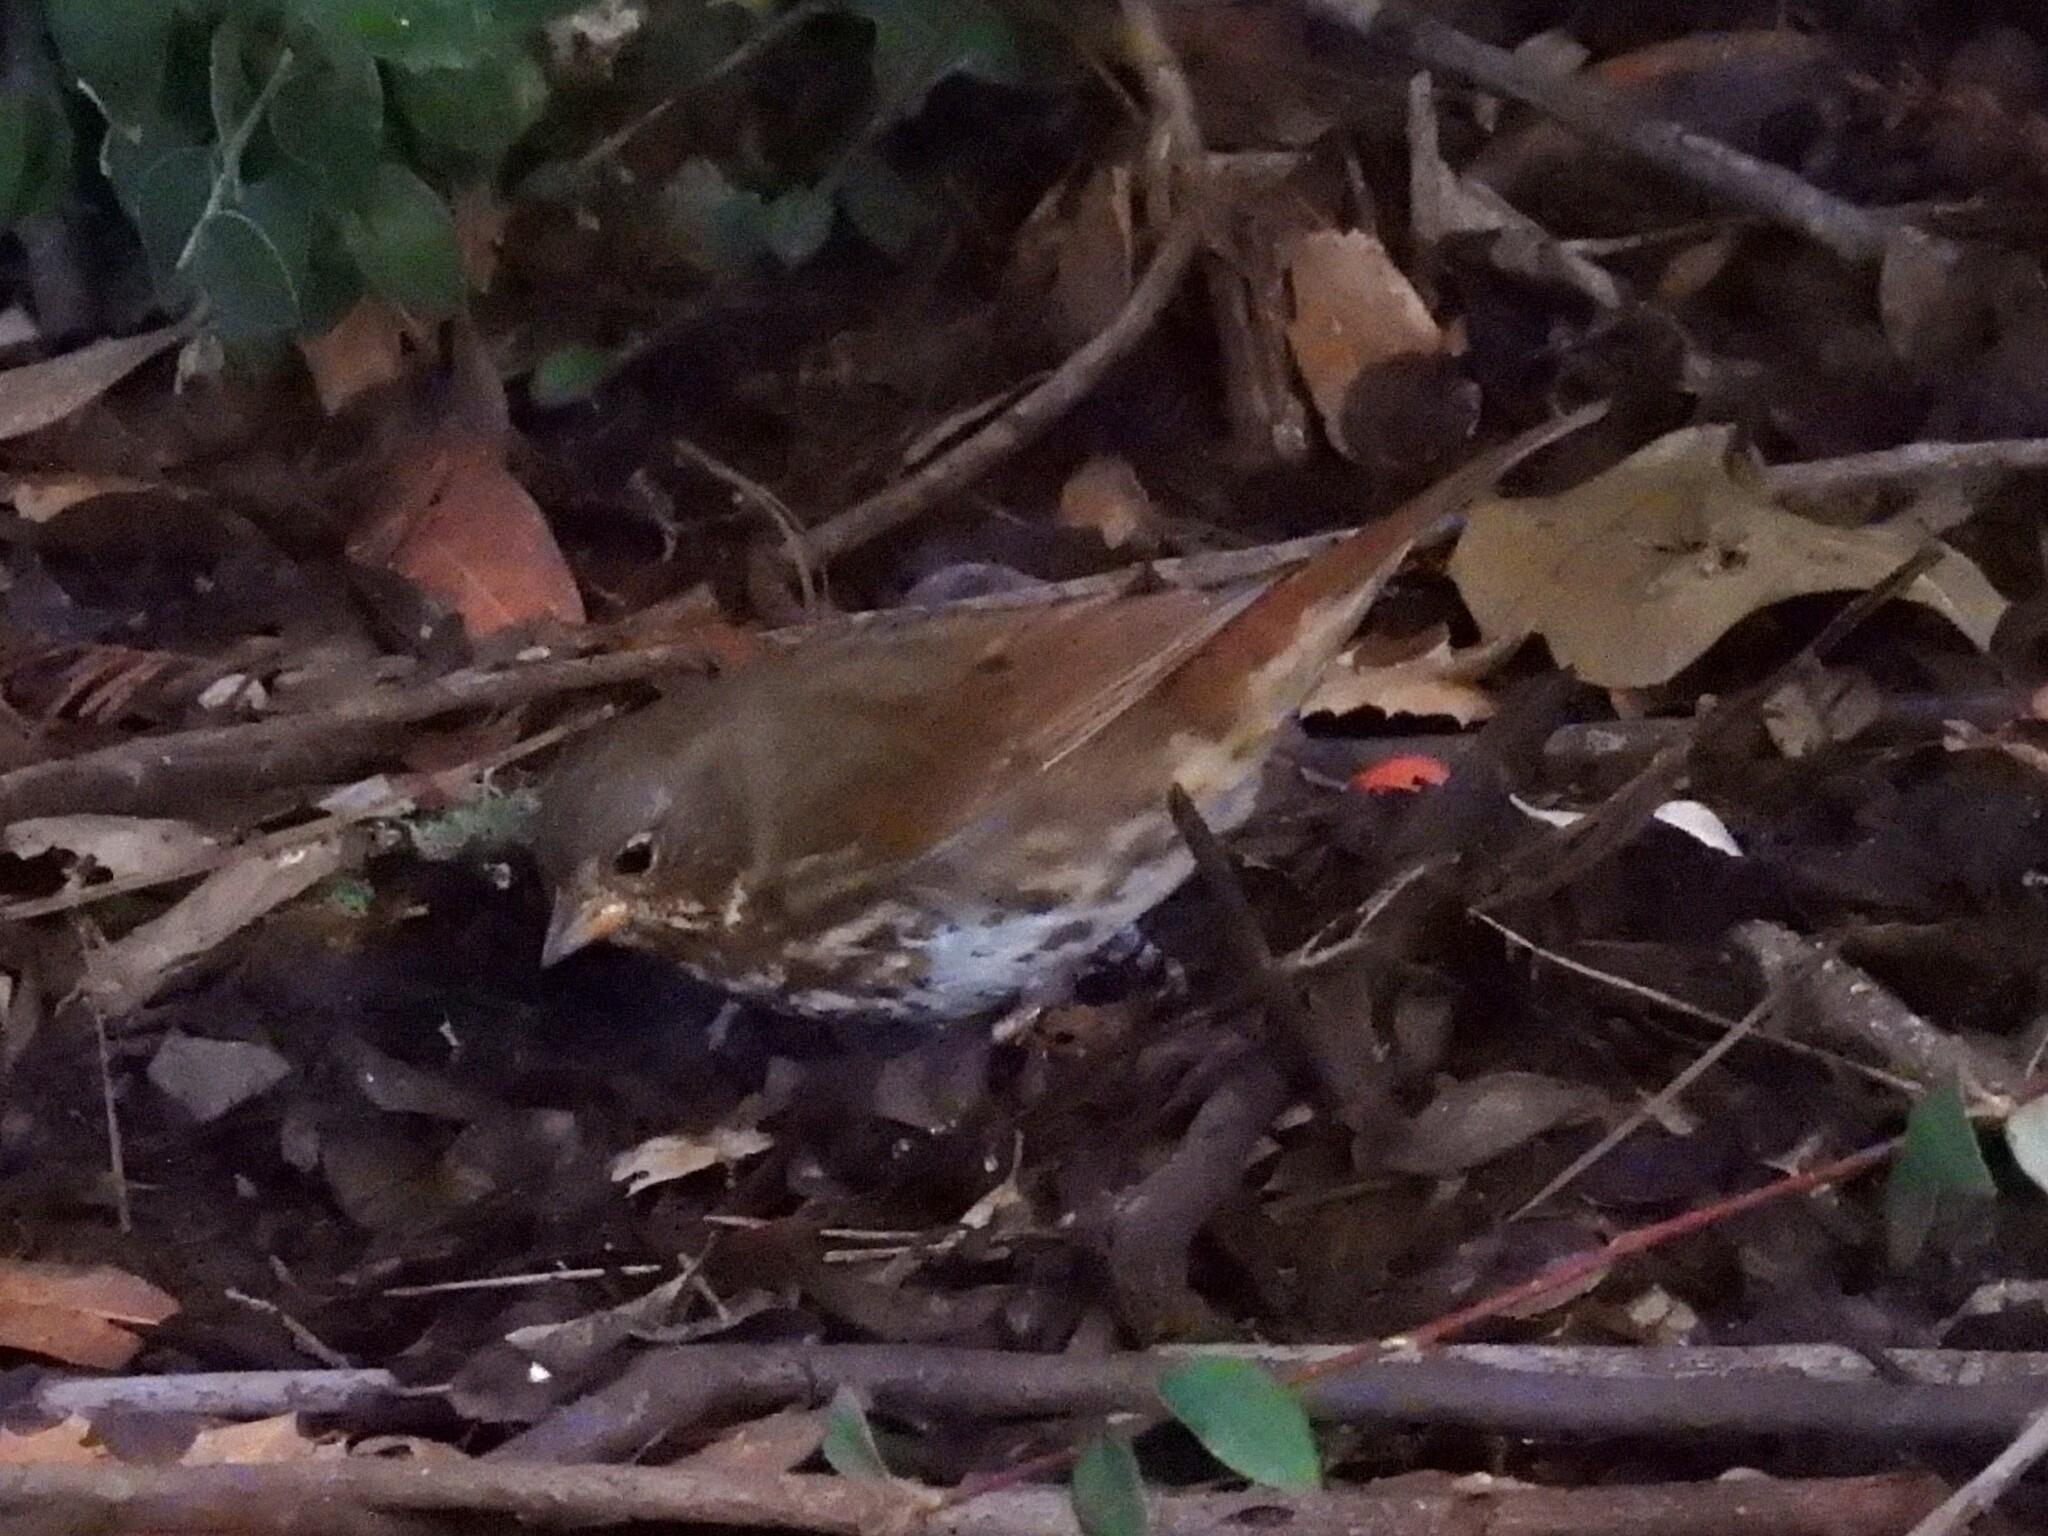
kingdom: Animalia
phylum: Chordata
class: Aves
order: Passeriformes
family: Passerellidae
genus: Passerella
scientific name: Passerella iliaca
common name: Fox sparrow
